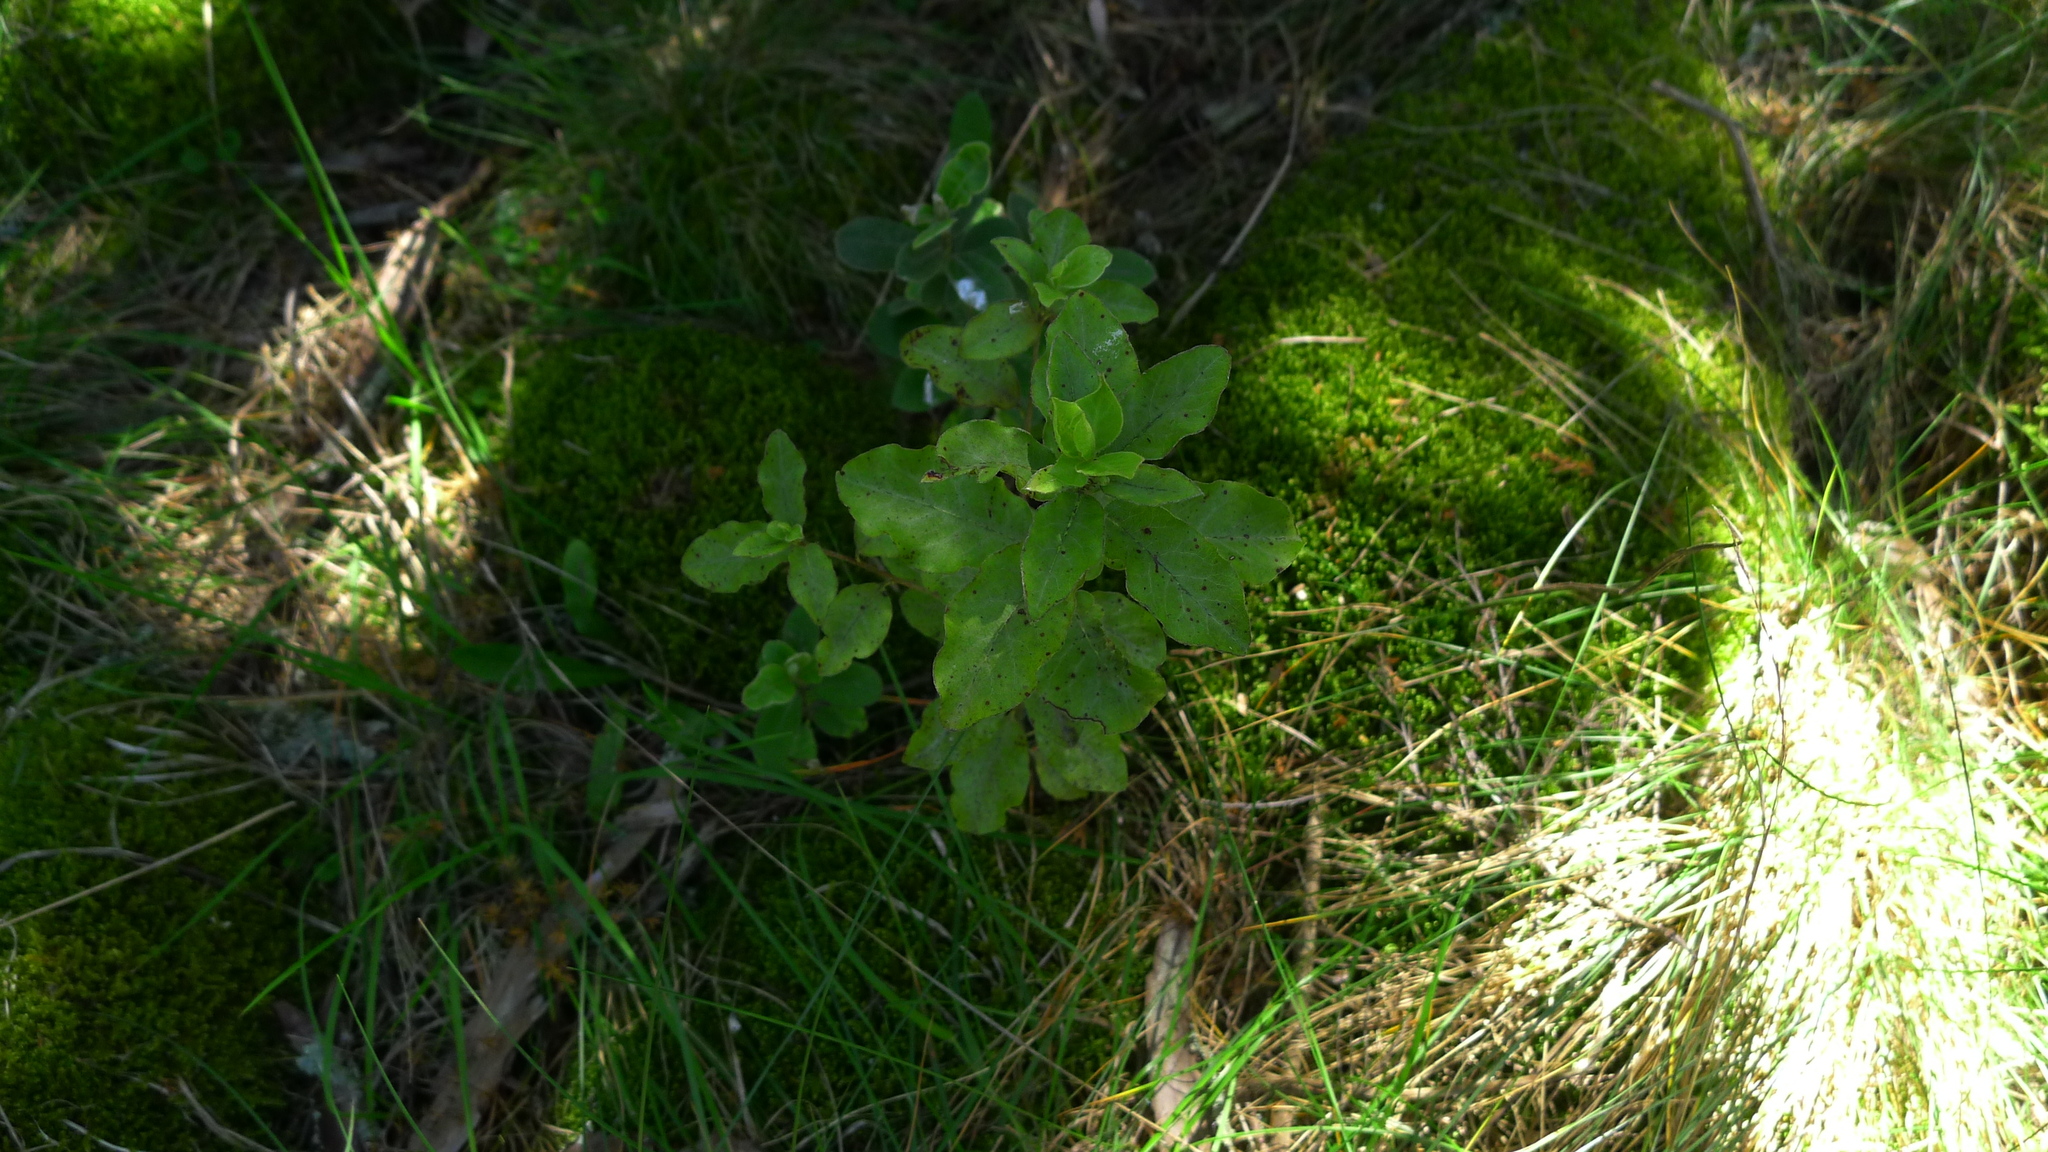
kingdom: Plantae
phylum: Tracheophyta
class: Magnoliopsida
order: Apiales
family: Pittosporaceae
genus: Pittosporum
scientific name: Pittosporum tenuifolium
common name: Kohuhu
